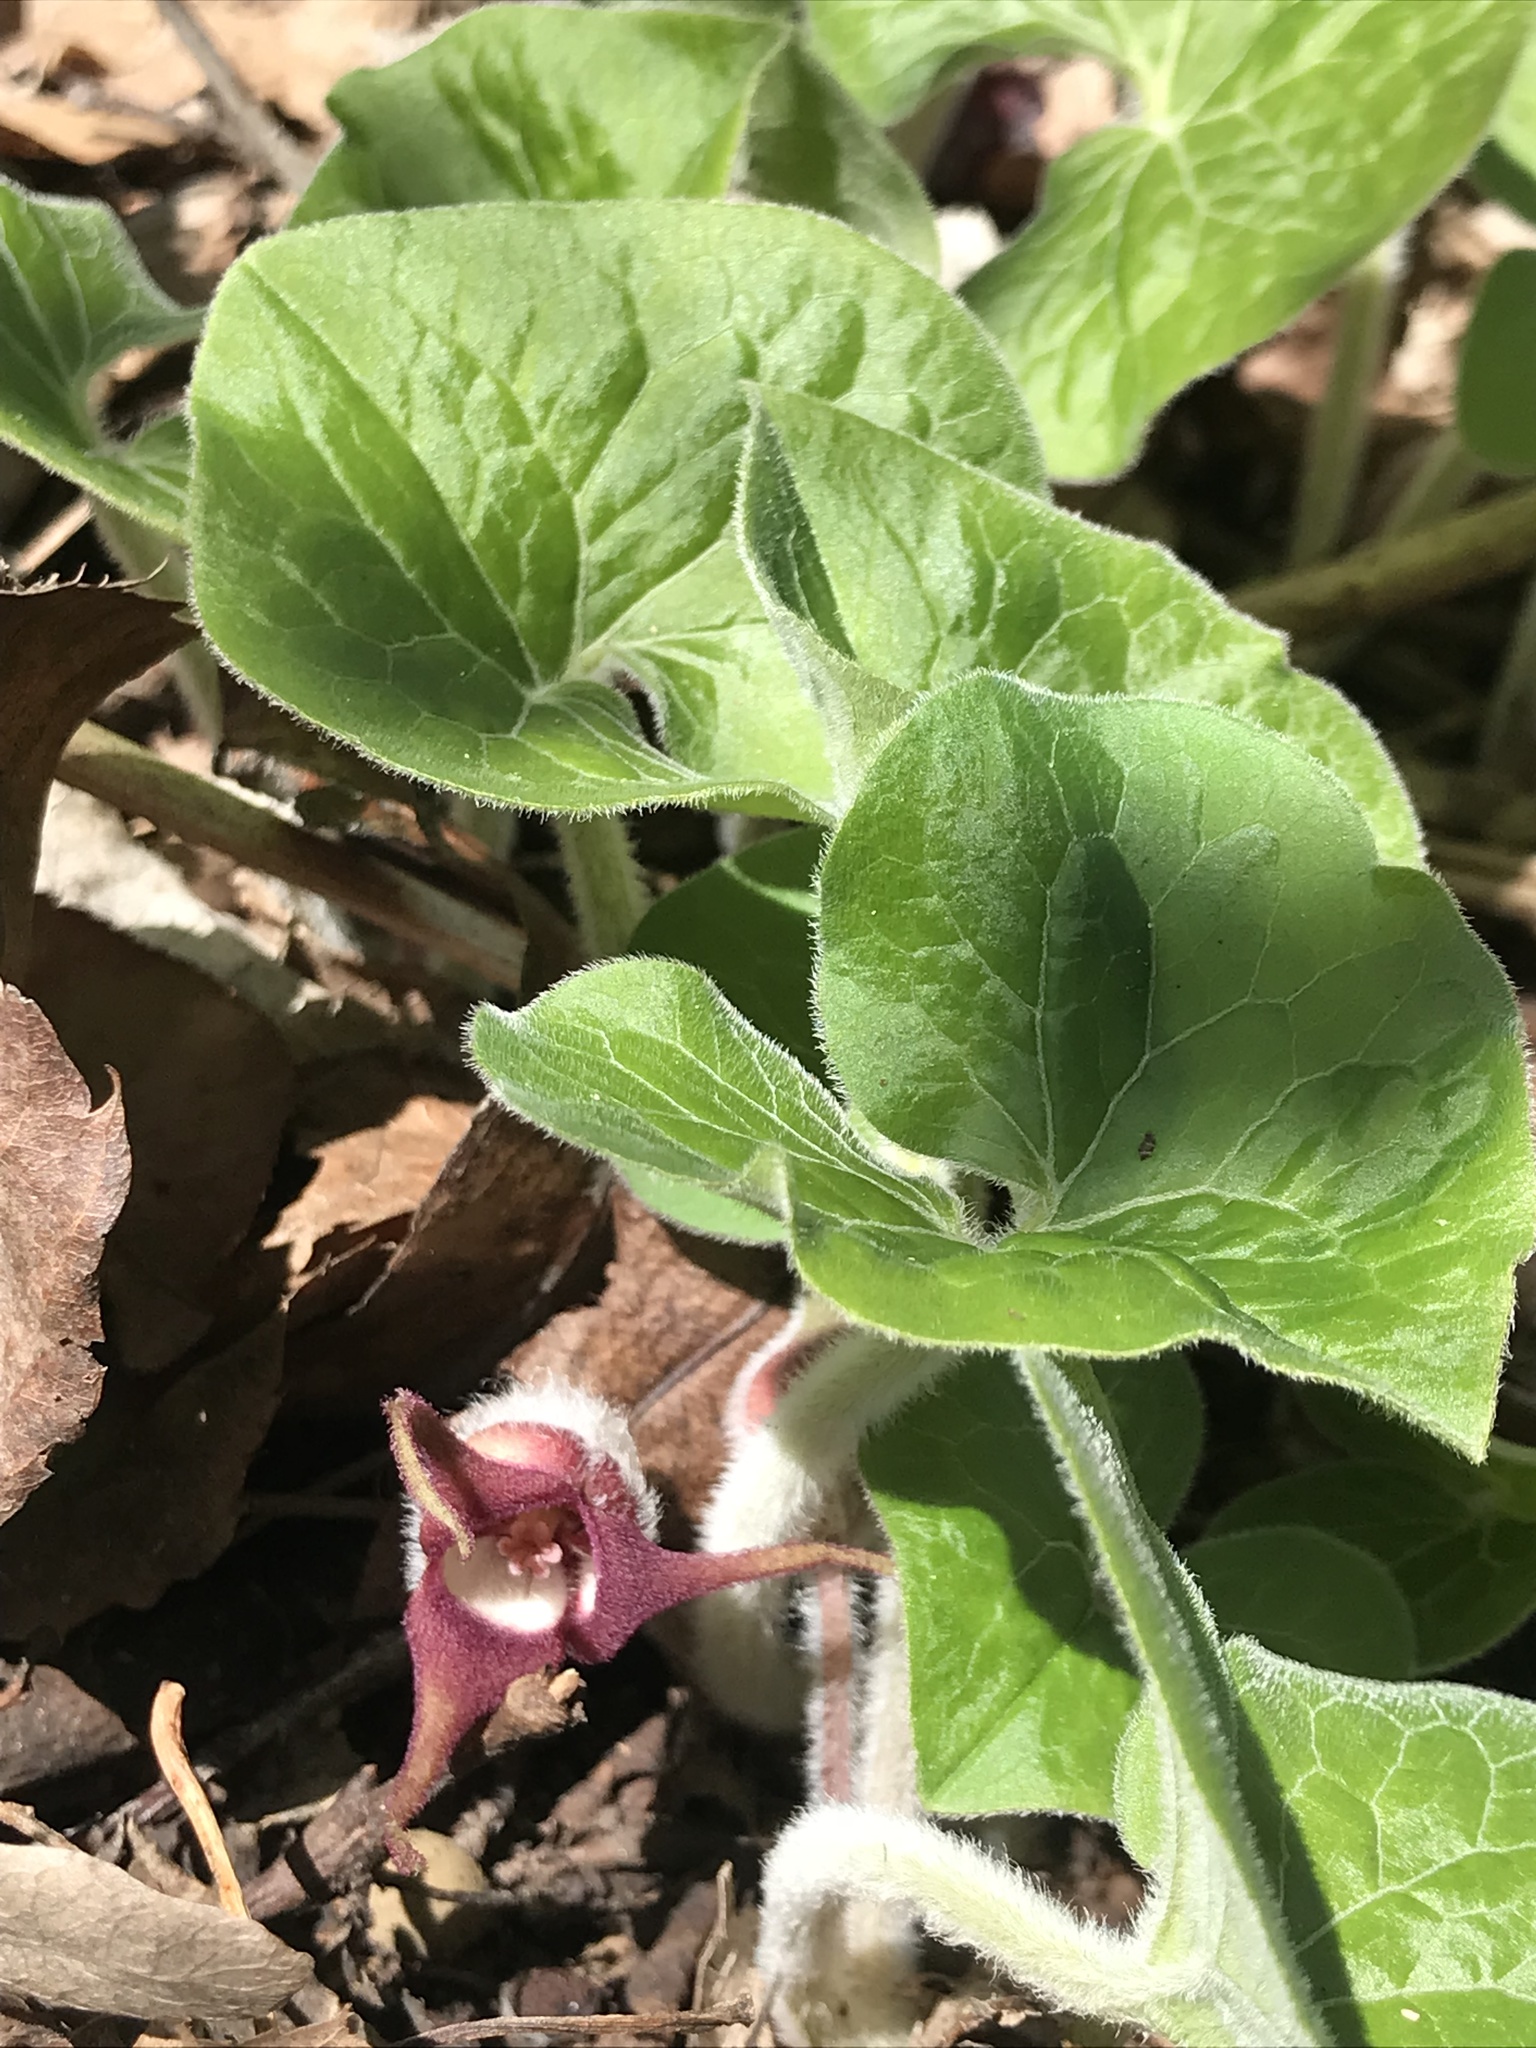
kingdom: Plantae
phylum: Tracheophyta
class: Magnoliopsida
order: Piperales
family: Aristolochiaceae
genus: Asarum
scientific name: Asarum canadense
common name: Wild ginger
